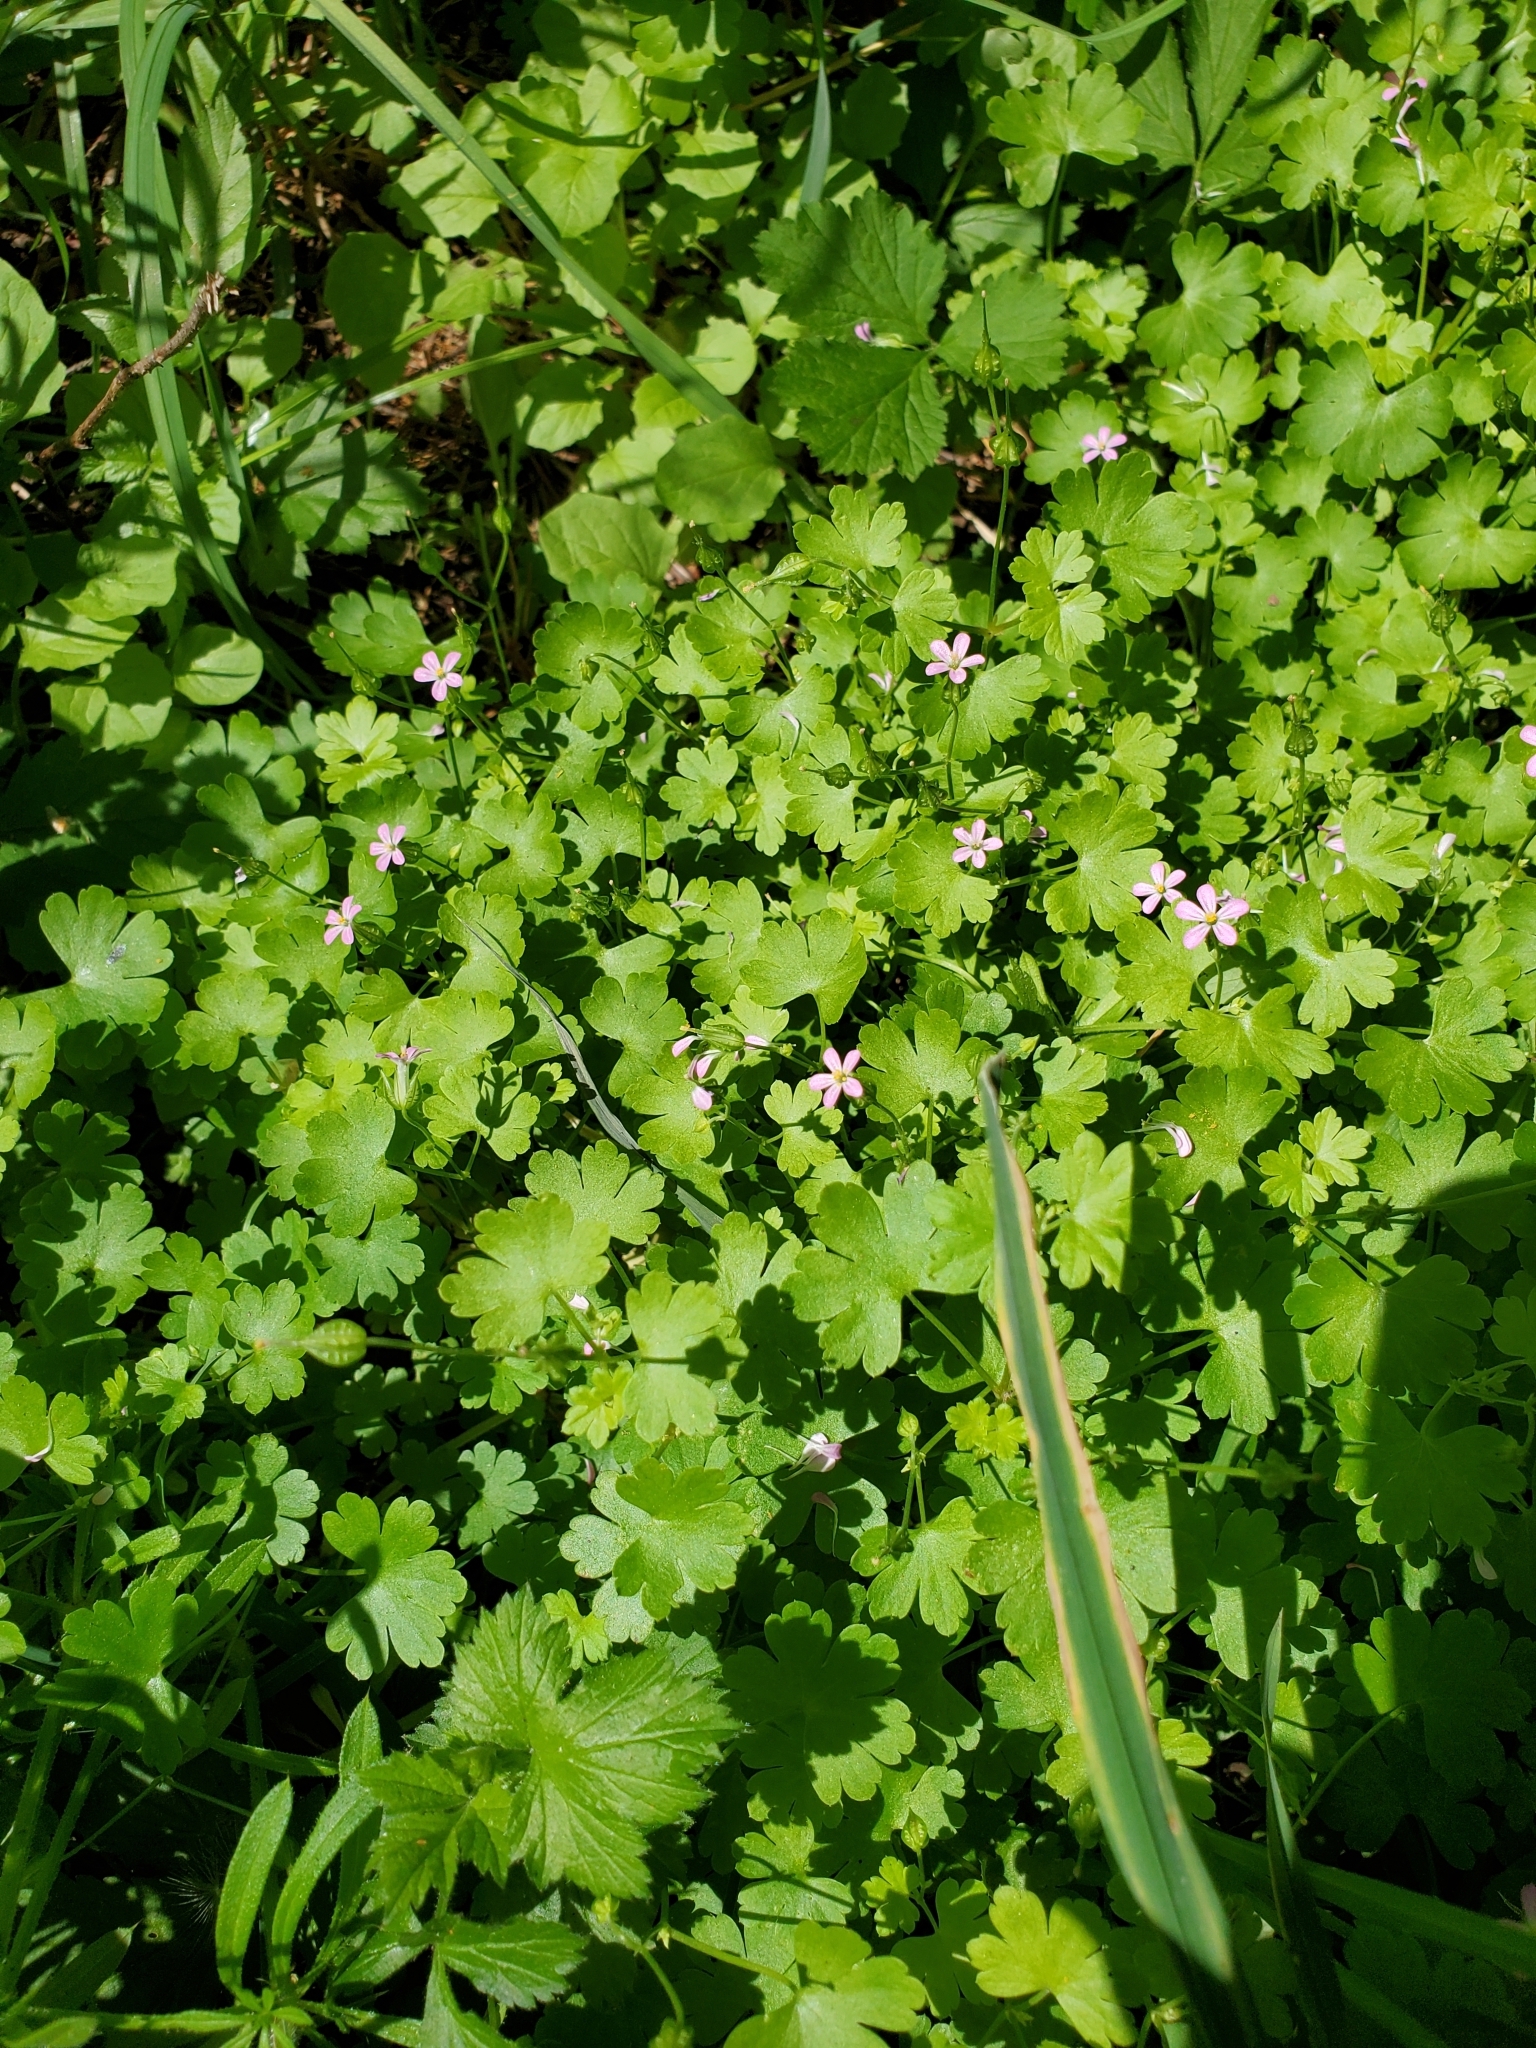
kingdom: Plantae
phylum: Tracheophyta
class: Magnoliopsida
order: Geraniales
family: Geraniaceae
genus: Geranium
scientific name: Geranium lucidum
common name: Shining crane's-bill
